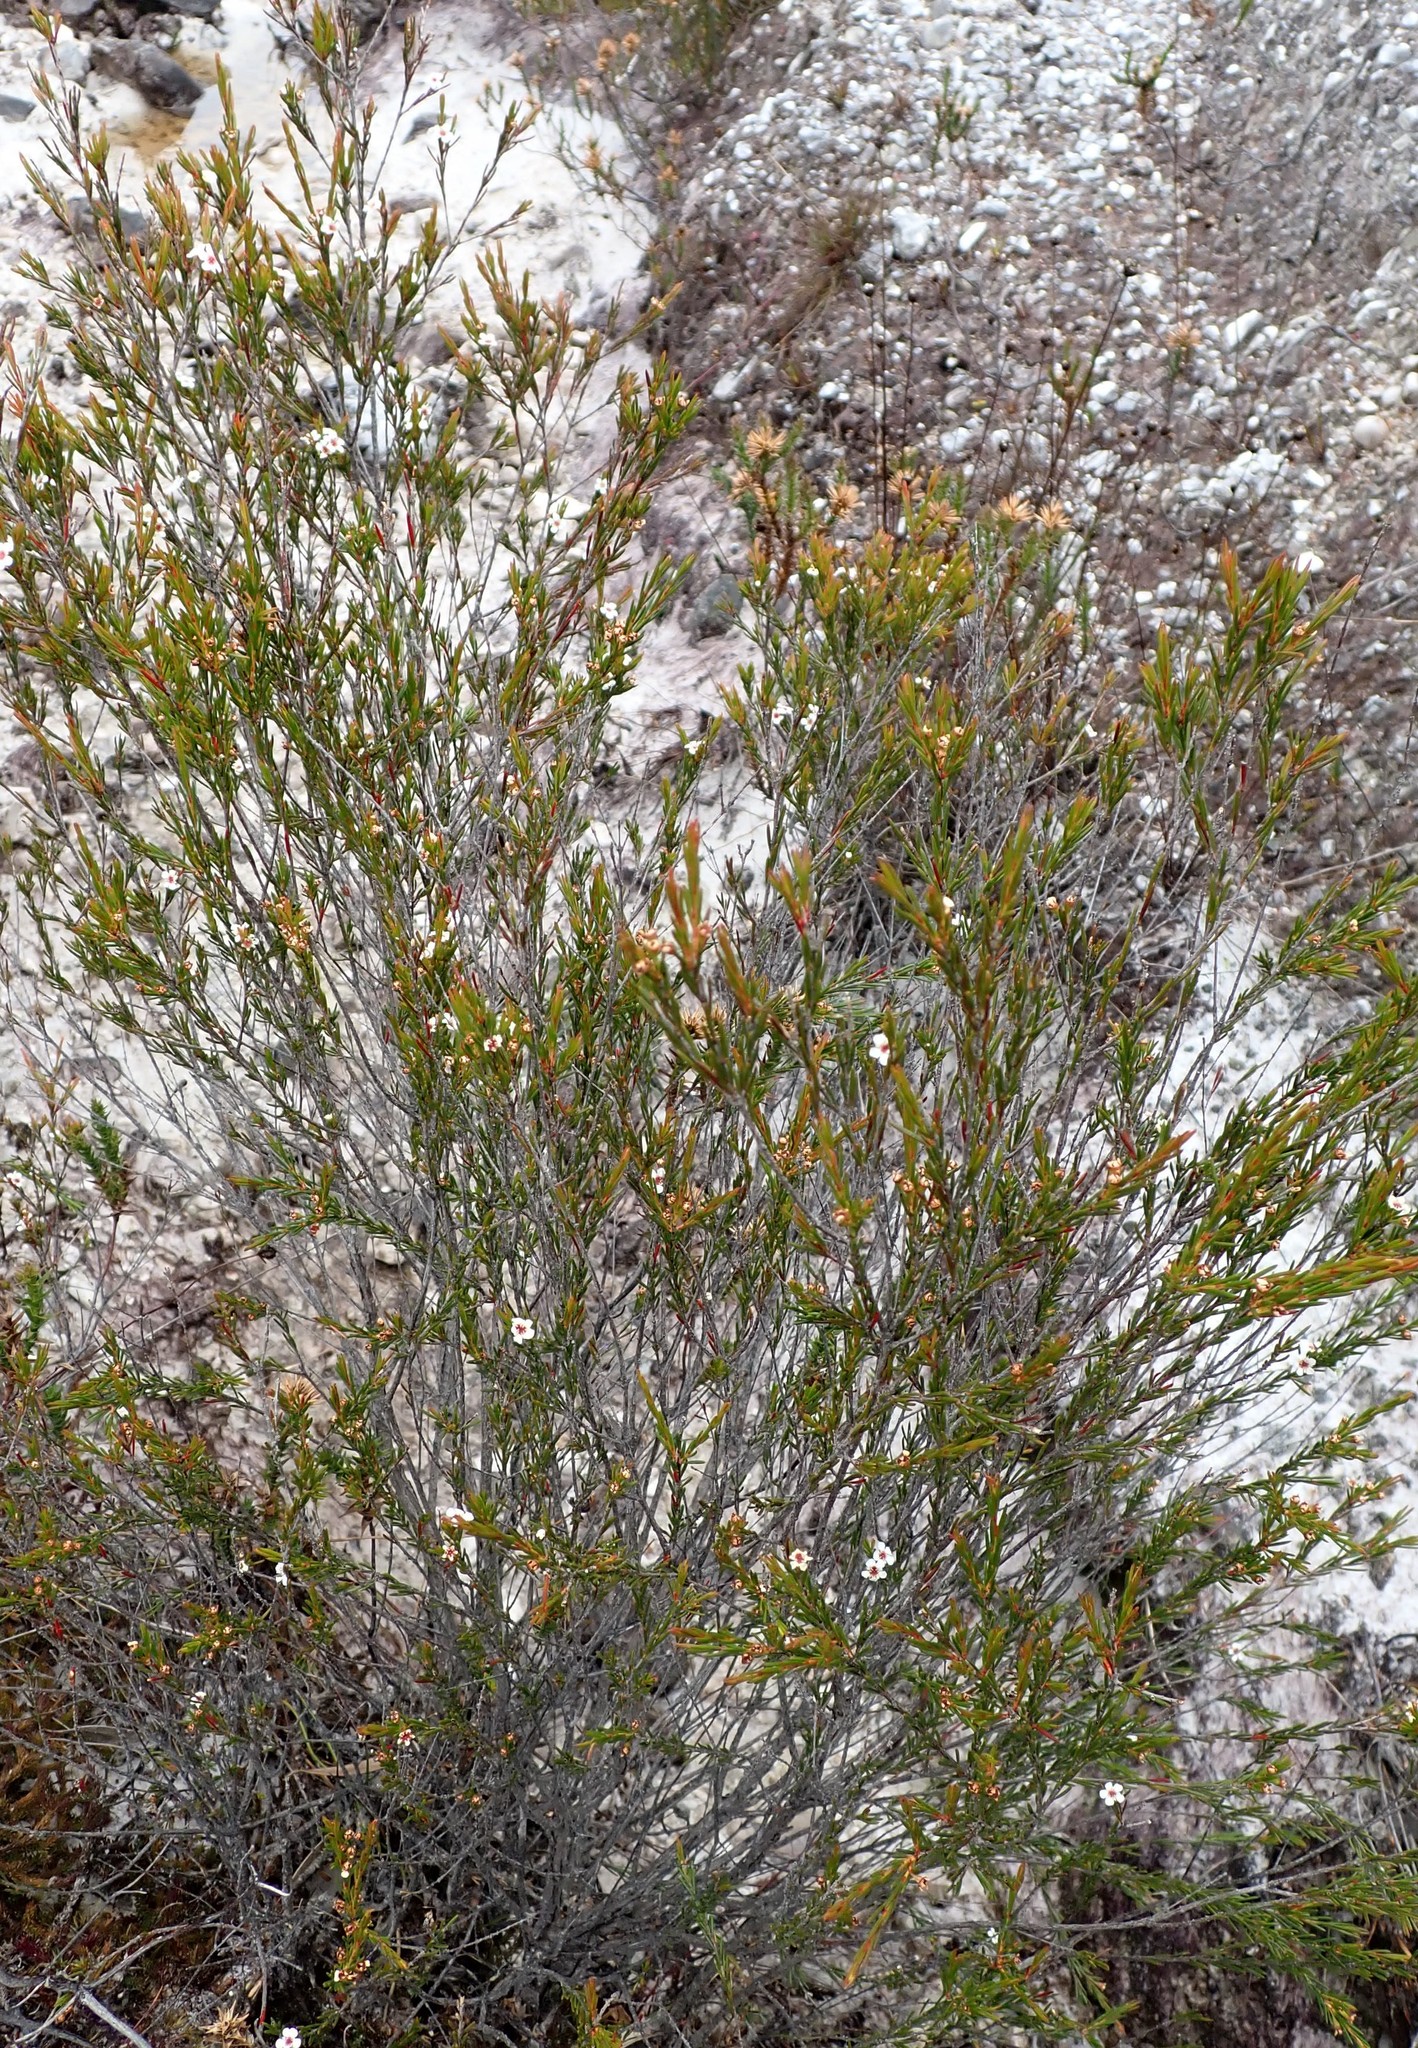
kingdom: Plantae
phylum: Tracheophyta
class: Magnoliopsida
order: Myrtales
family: Myrtaceae
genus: Baeckea
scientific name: Baeckea leptocaulis
